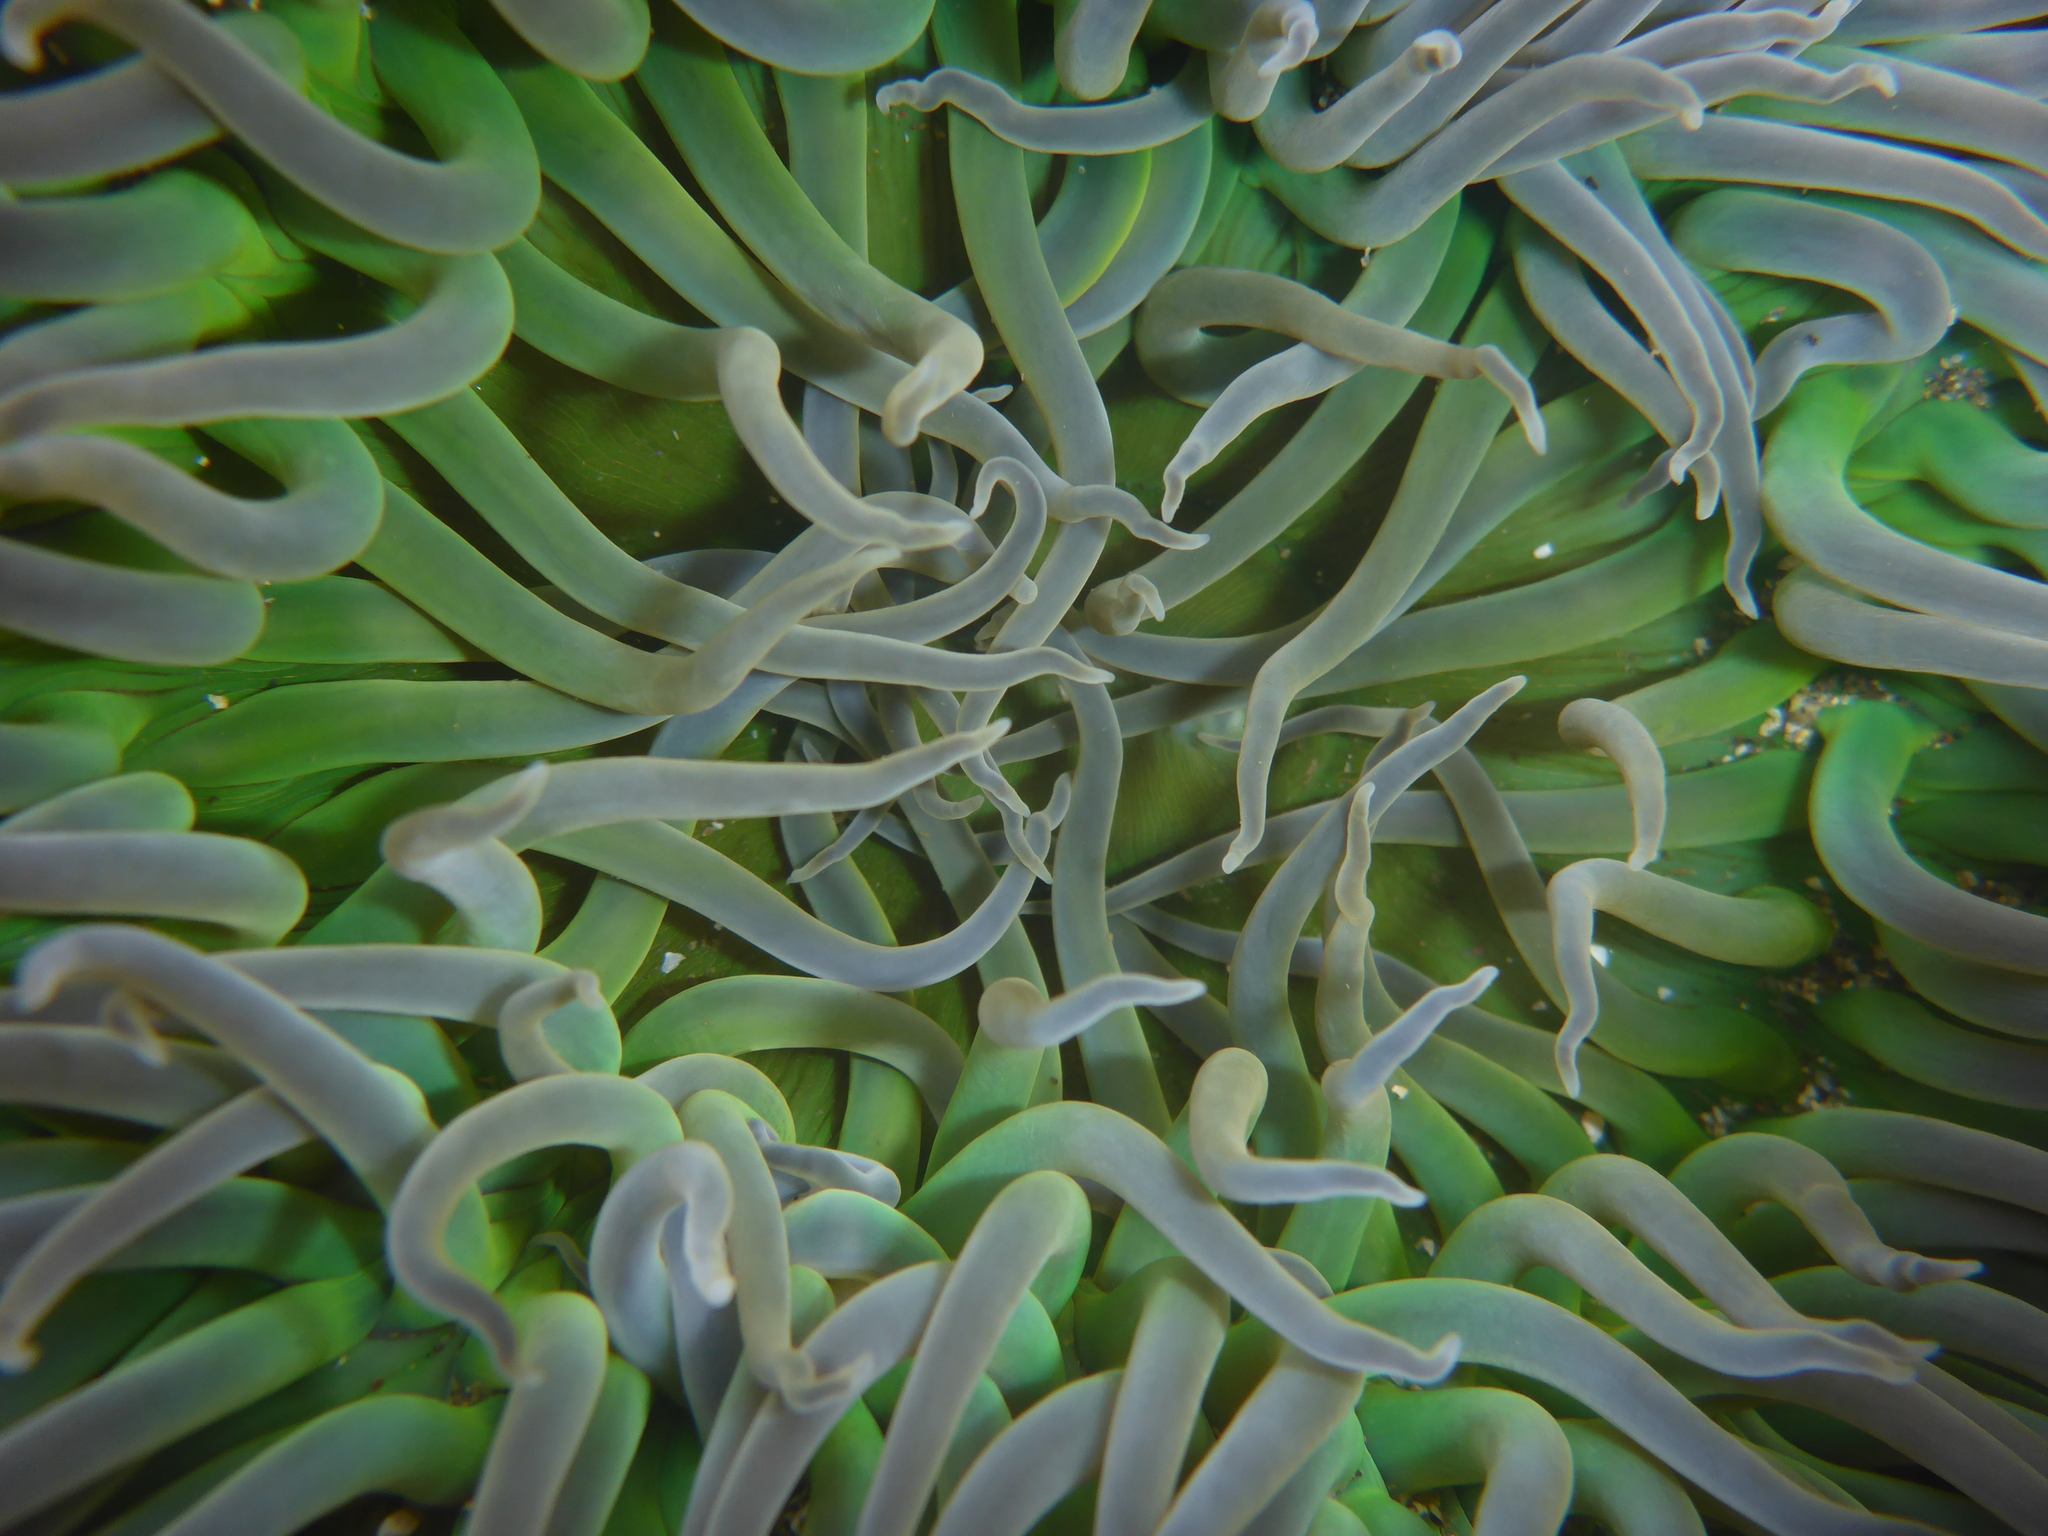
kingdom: Animalia
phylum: Cnidaria
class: Anthozoa
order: Actiniaria
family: Actiniidae
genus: Anthopleura
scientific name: Anthopleura xanthogrammica
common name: Giant green anemone
